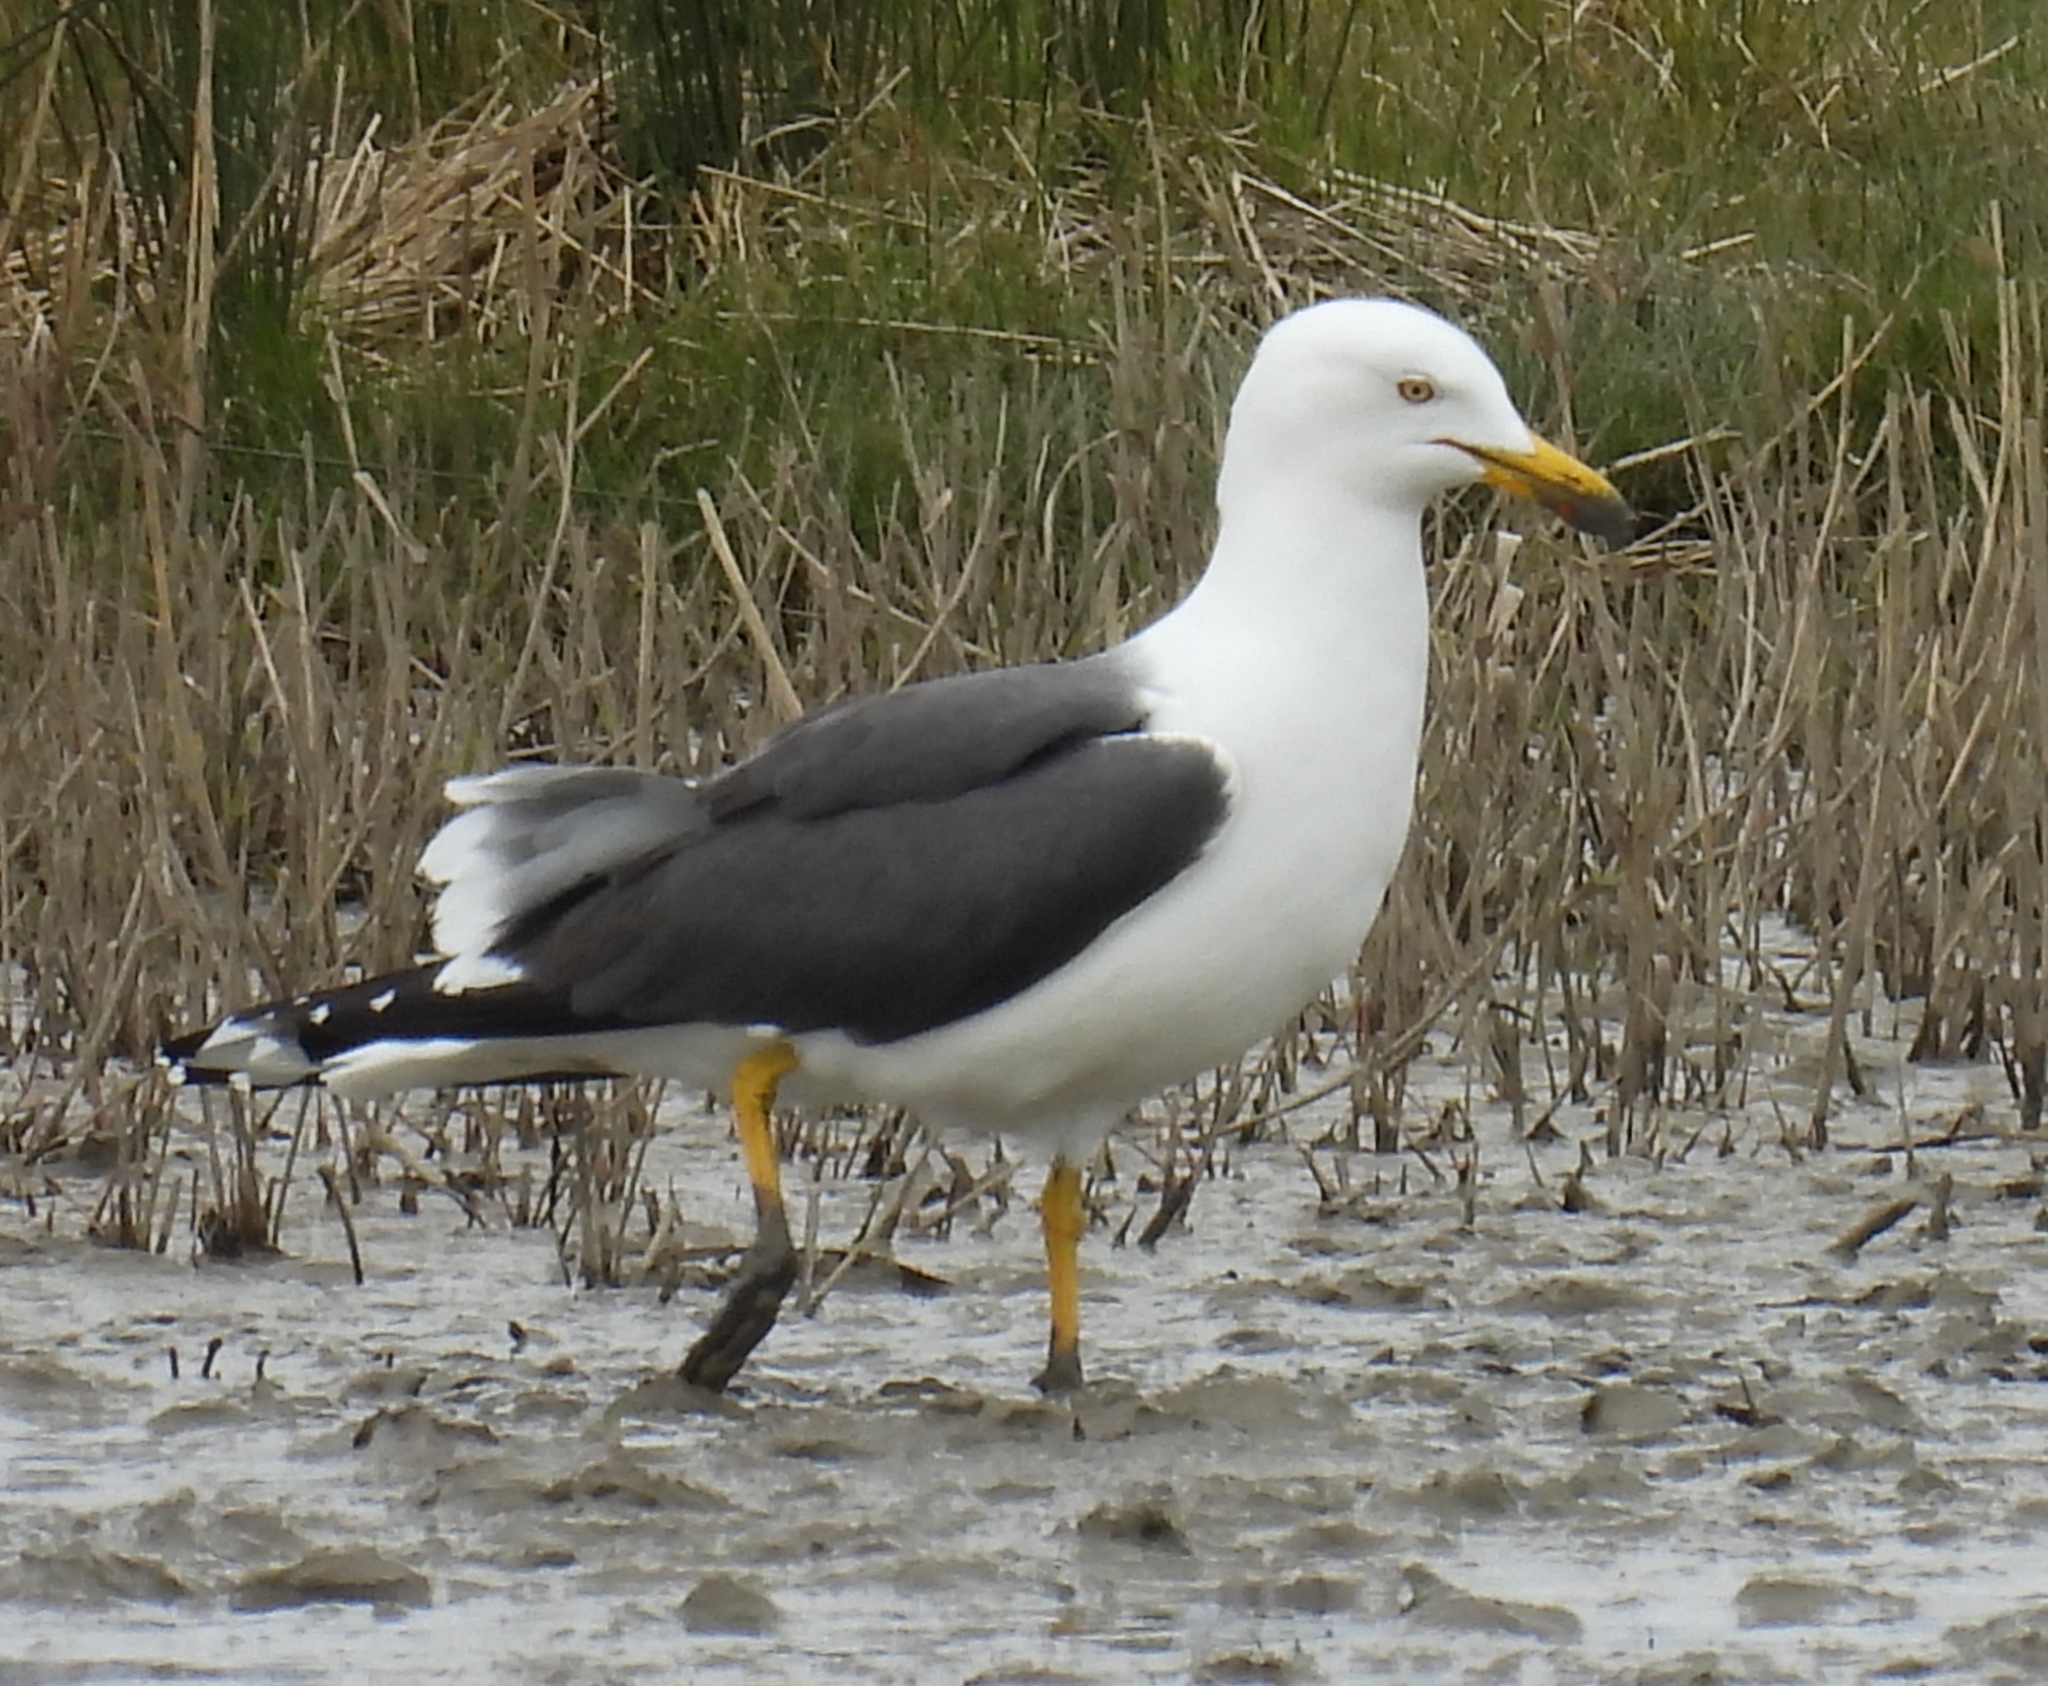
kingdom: Animalia
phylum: Chordata
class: Aves
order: Charadriiformes
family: Laridae
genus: Larus
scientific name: Larus fuscus
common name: Lesser black-backed gull
